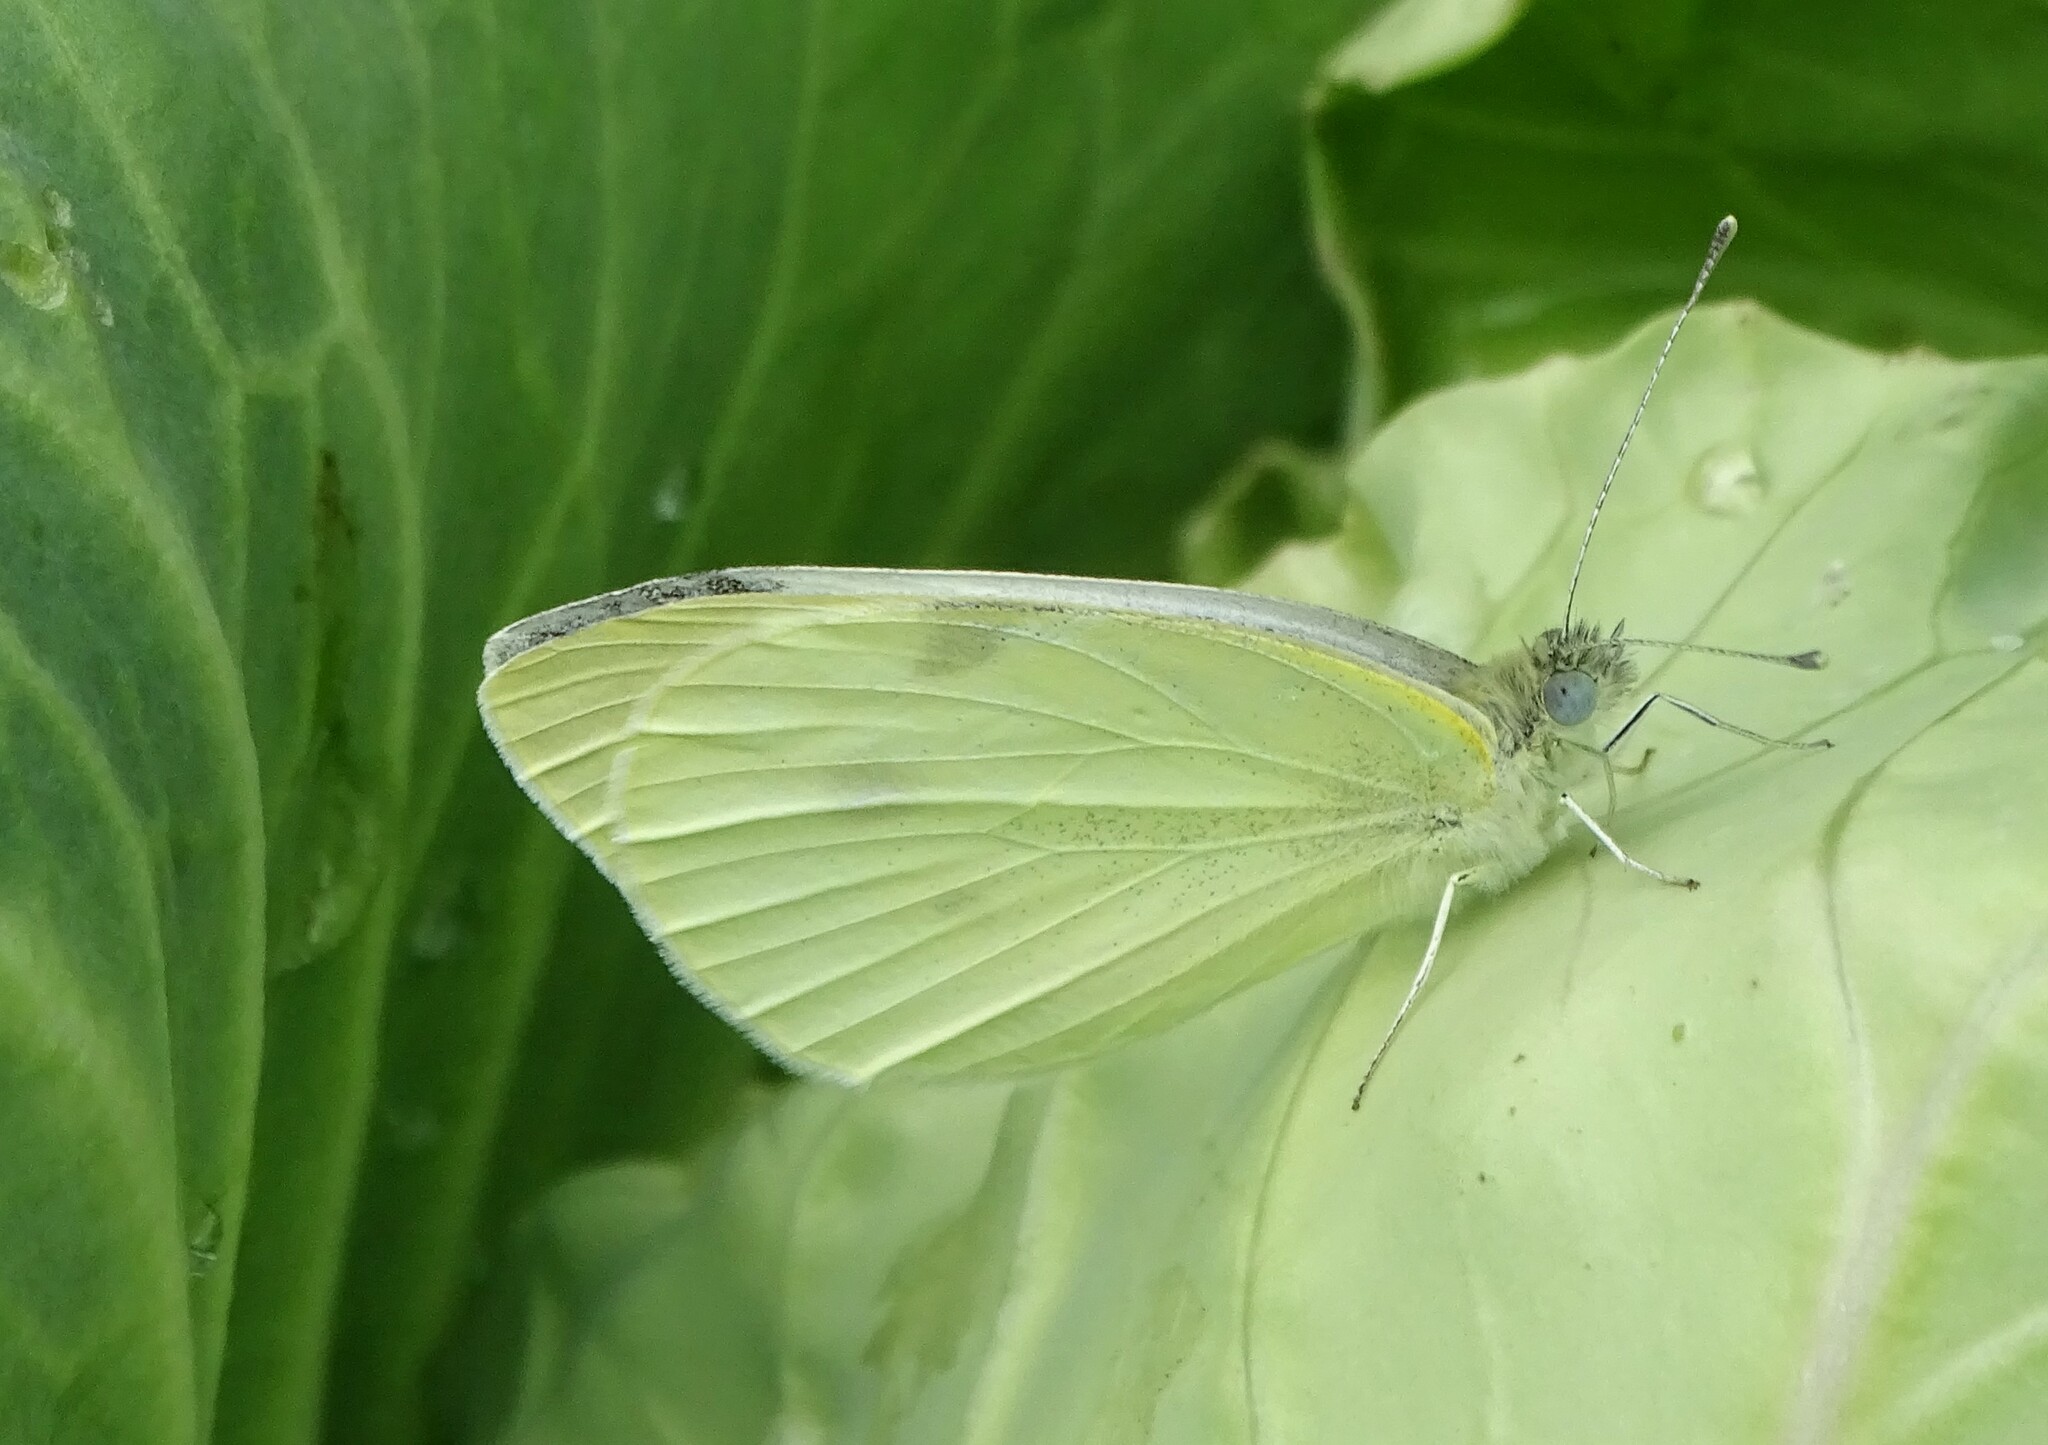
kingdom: Animalia
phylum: Arthropoda
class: Insecta
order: Lepidoptera
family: Pieridae
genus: Pieris
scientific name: Pieris rapae
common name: Small white
